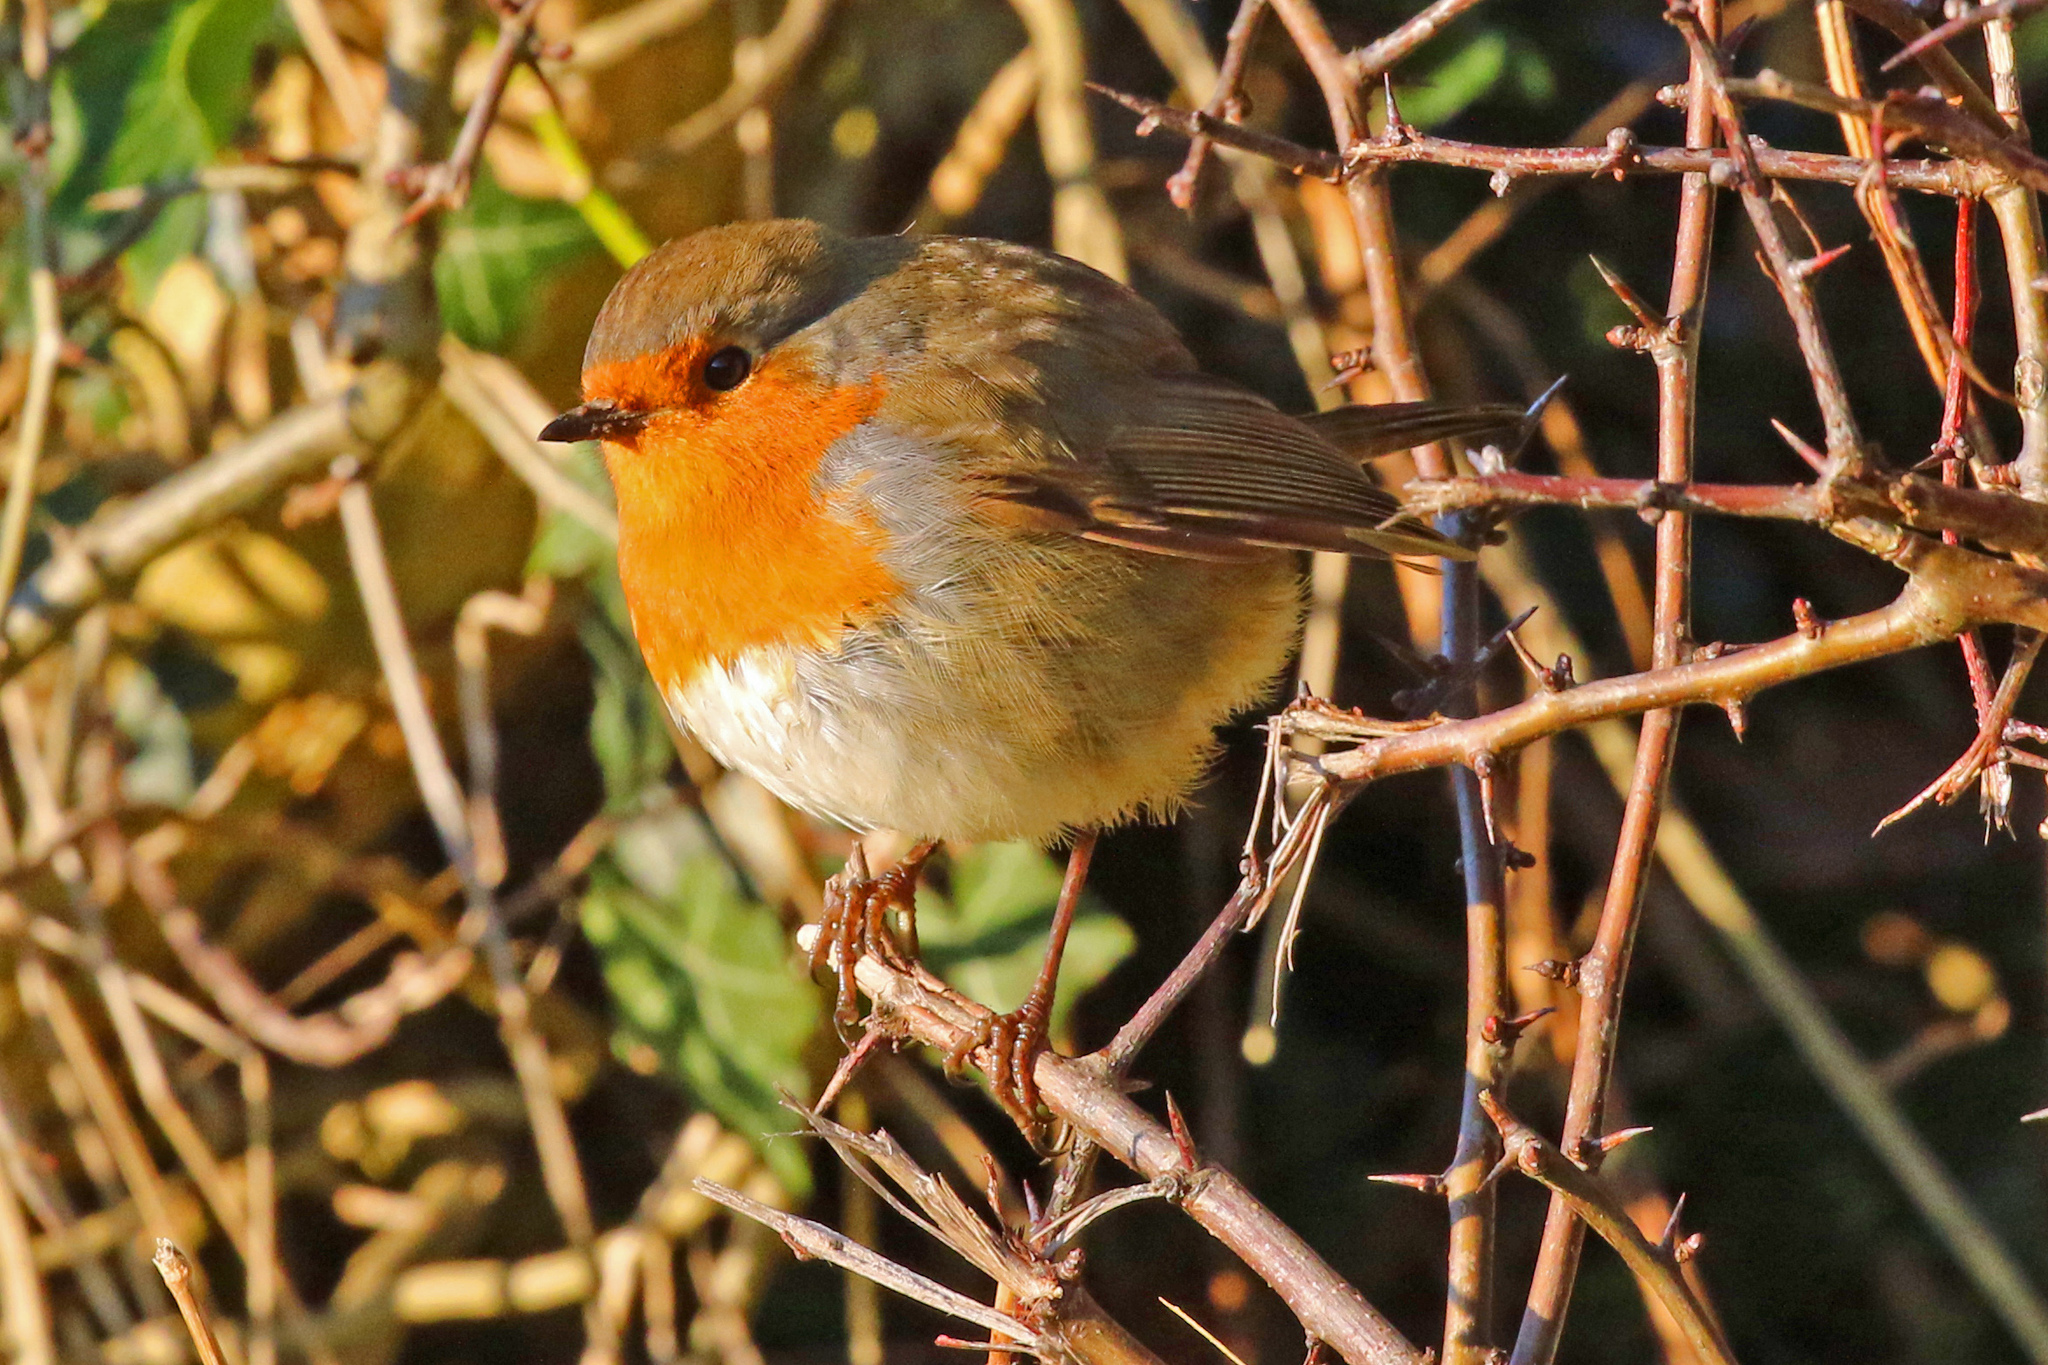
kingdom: Animalia
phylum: Chordata
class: Aves
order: Passeriformes
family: Muscicapidae
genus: Erithacus
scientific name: Erithacus rubecula
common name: European robin
